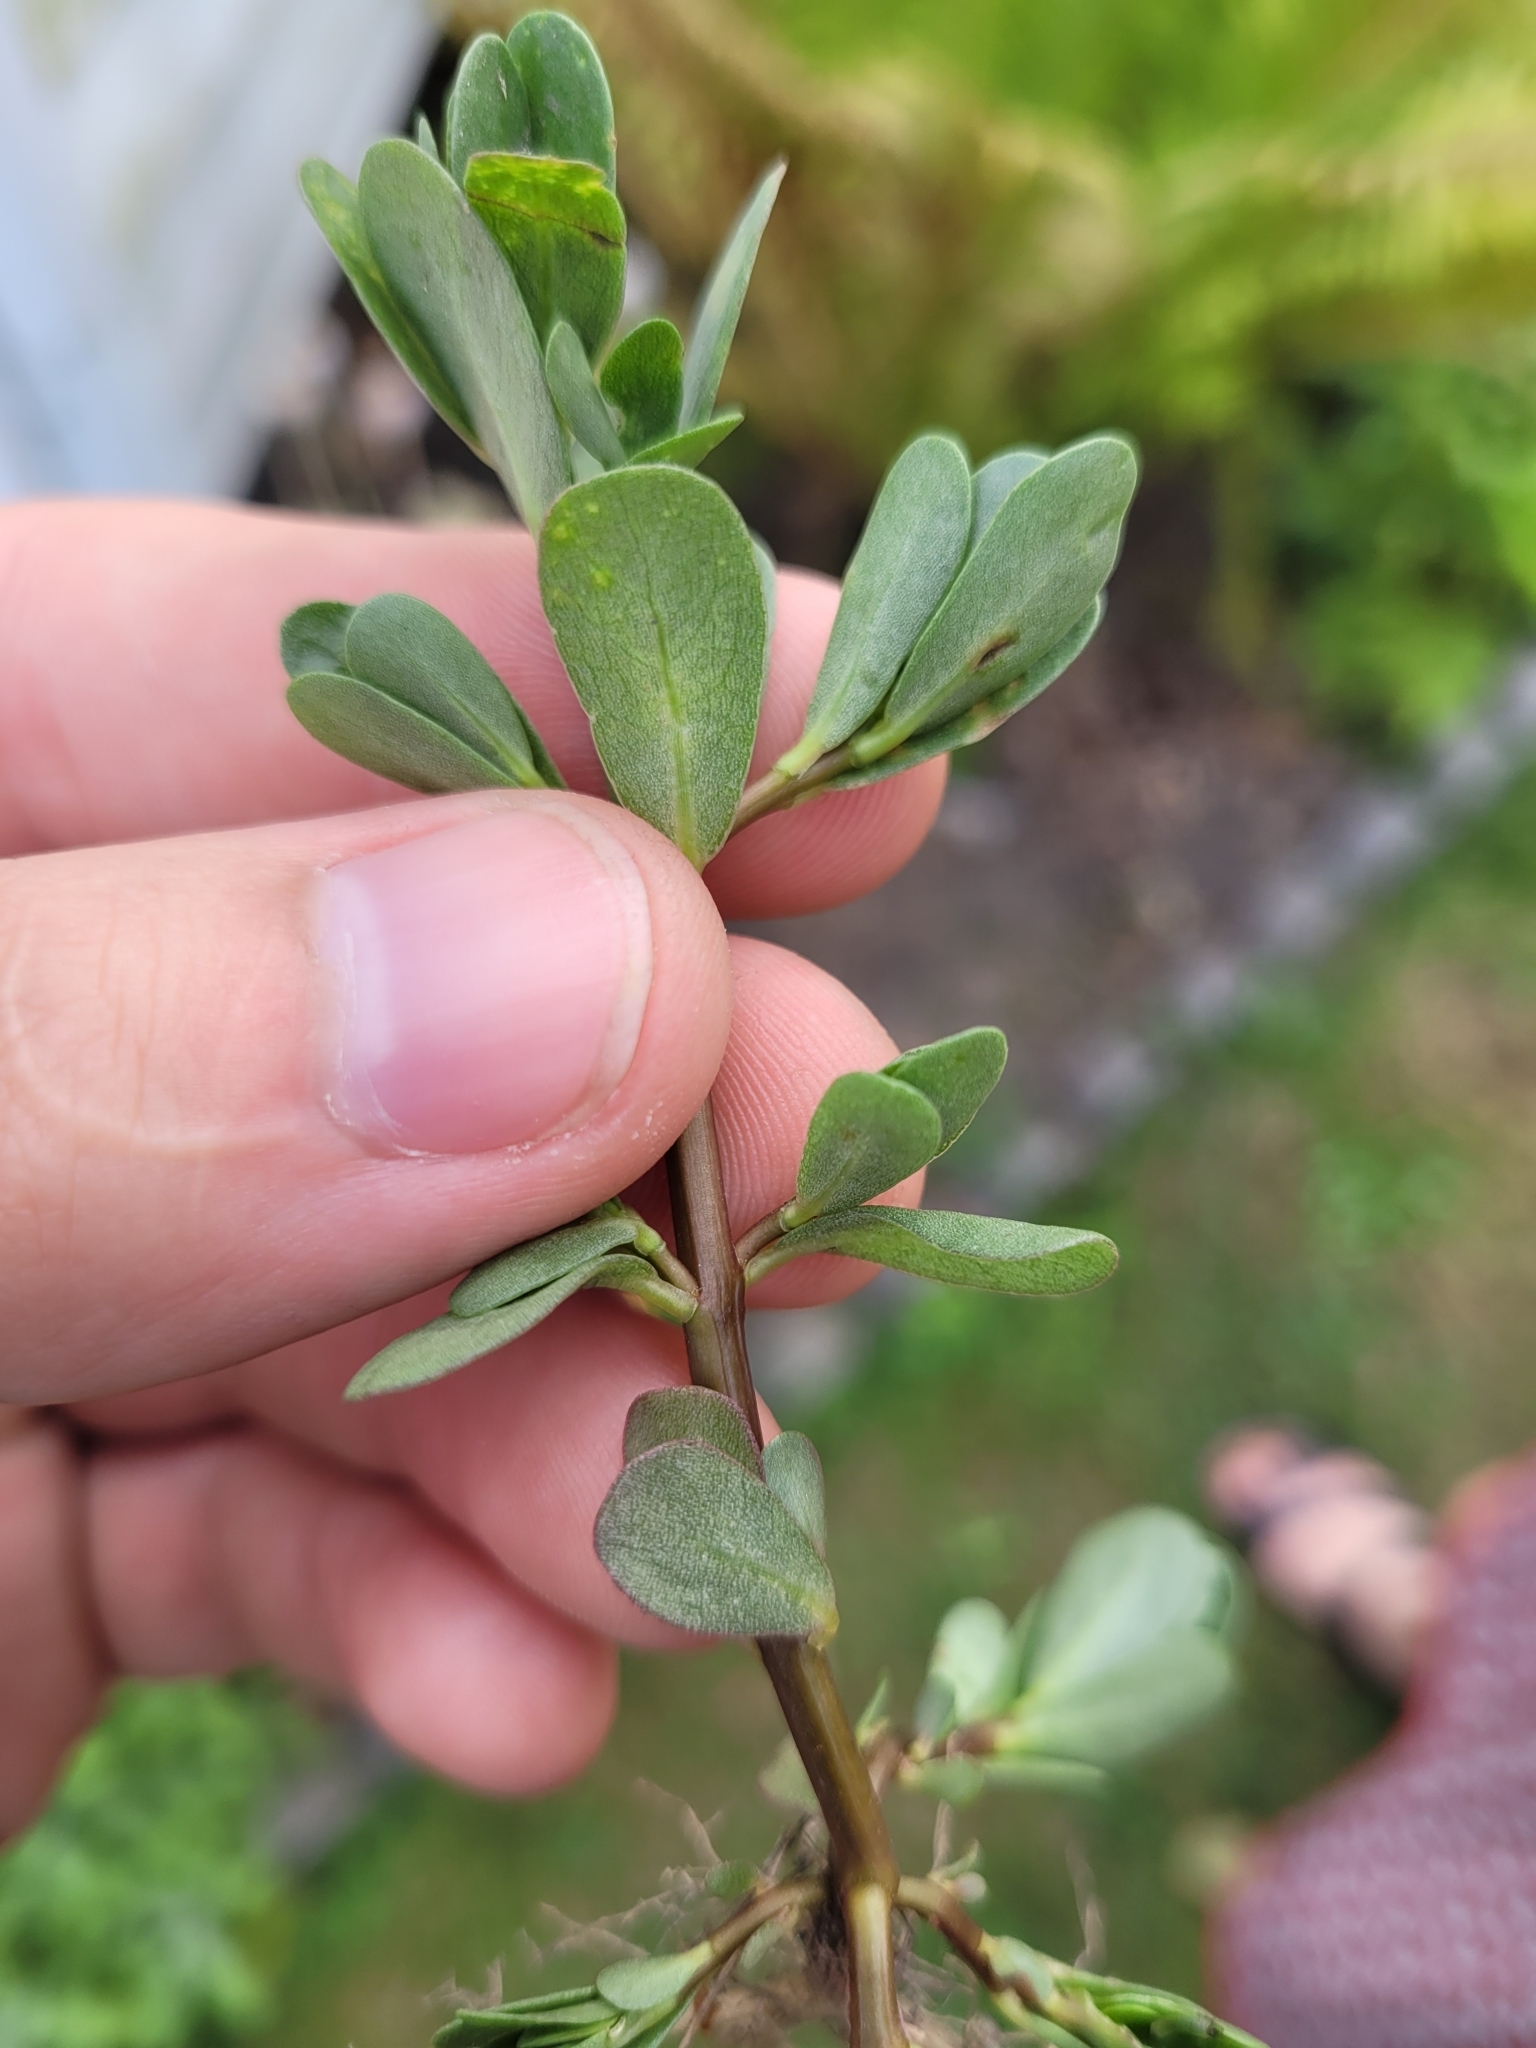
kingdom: Plantae
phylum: Tracheophyta
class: Magnoliopsida
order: Caryophyllales
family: Portulacaceae
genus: Portulaca
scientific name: Portulaca oleracea
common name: Common purslane
